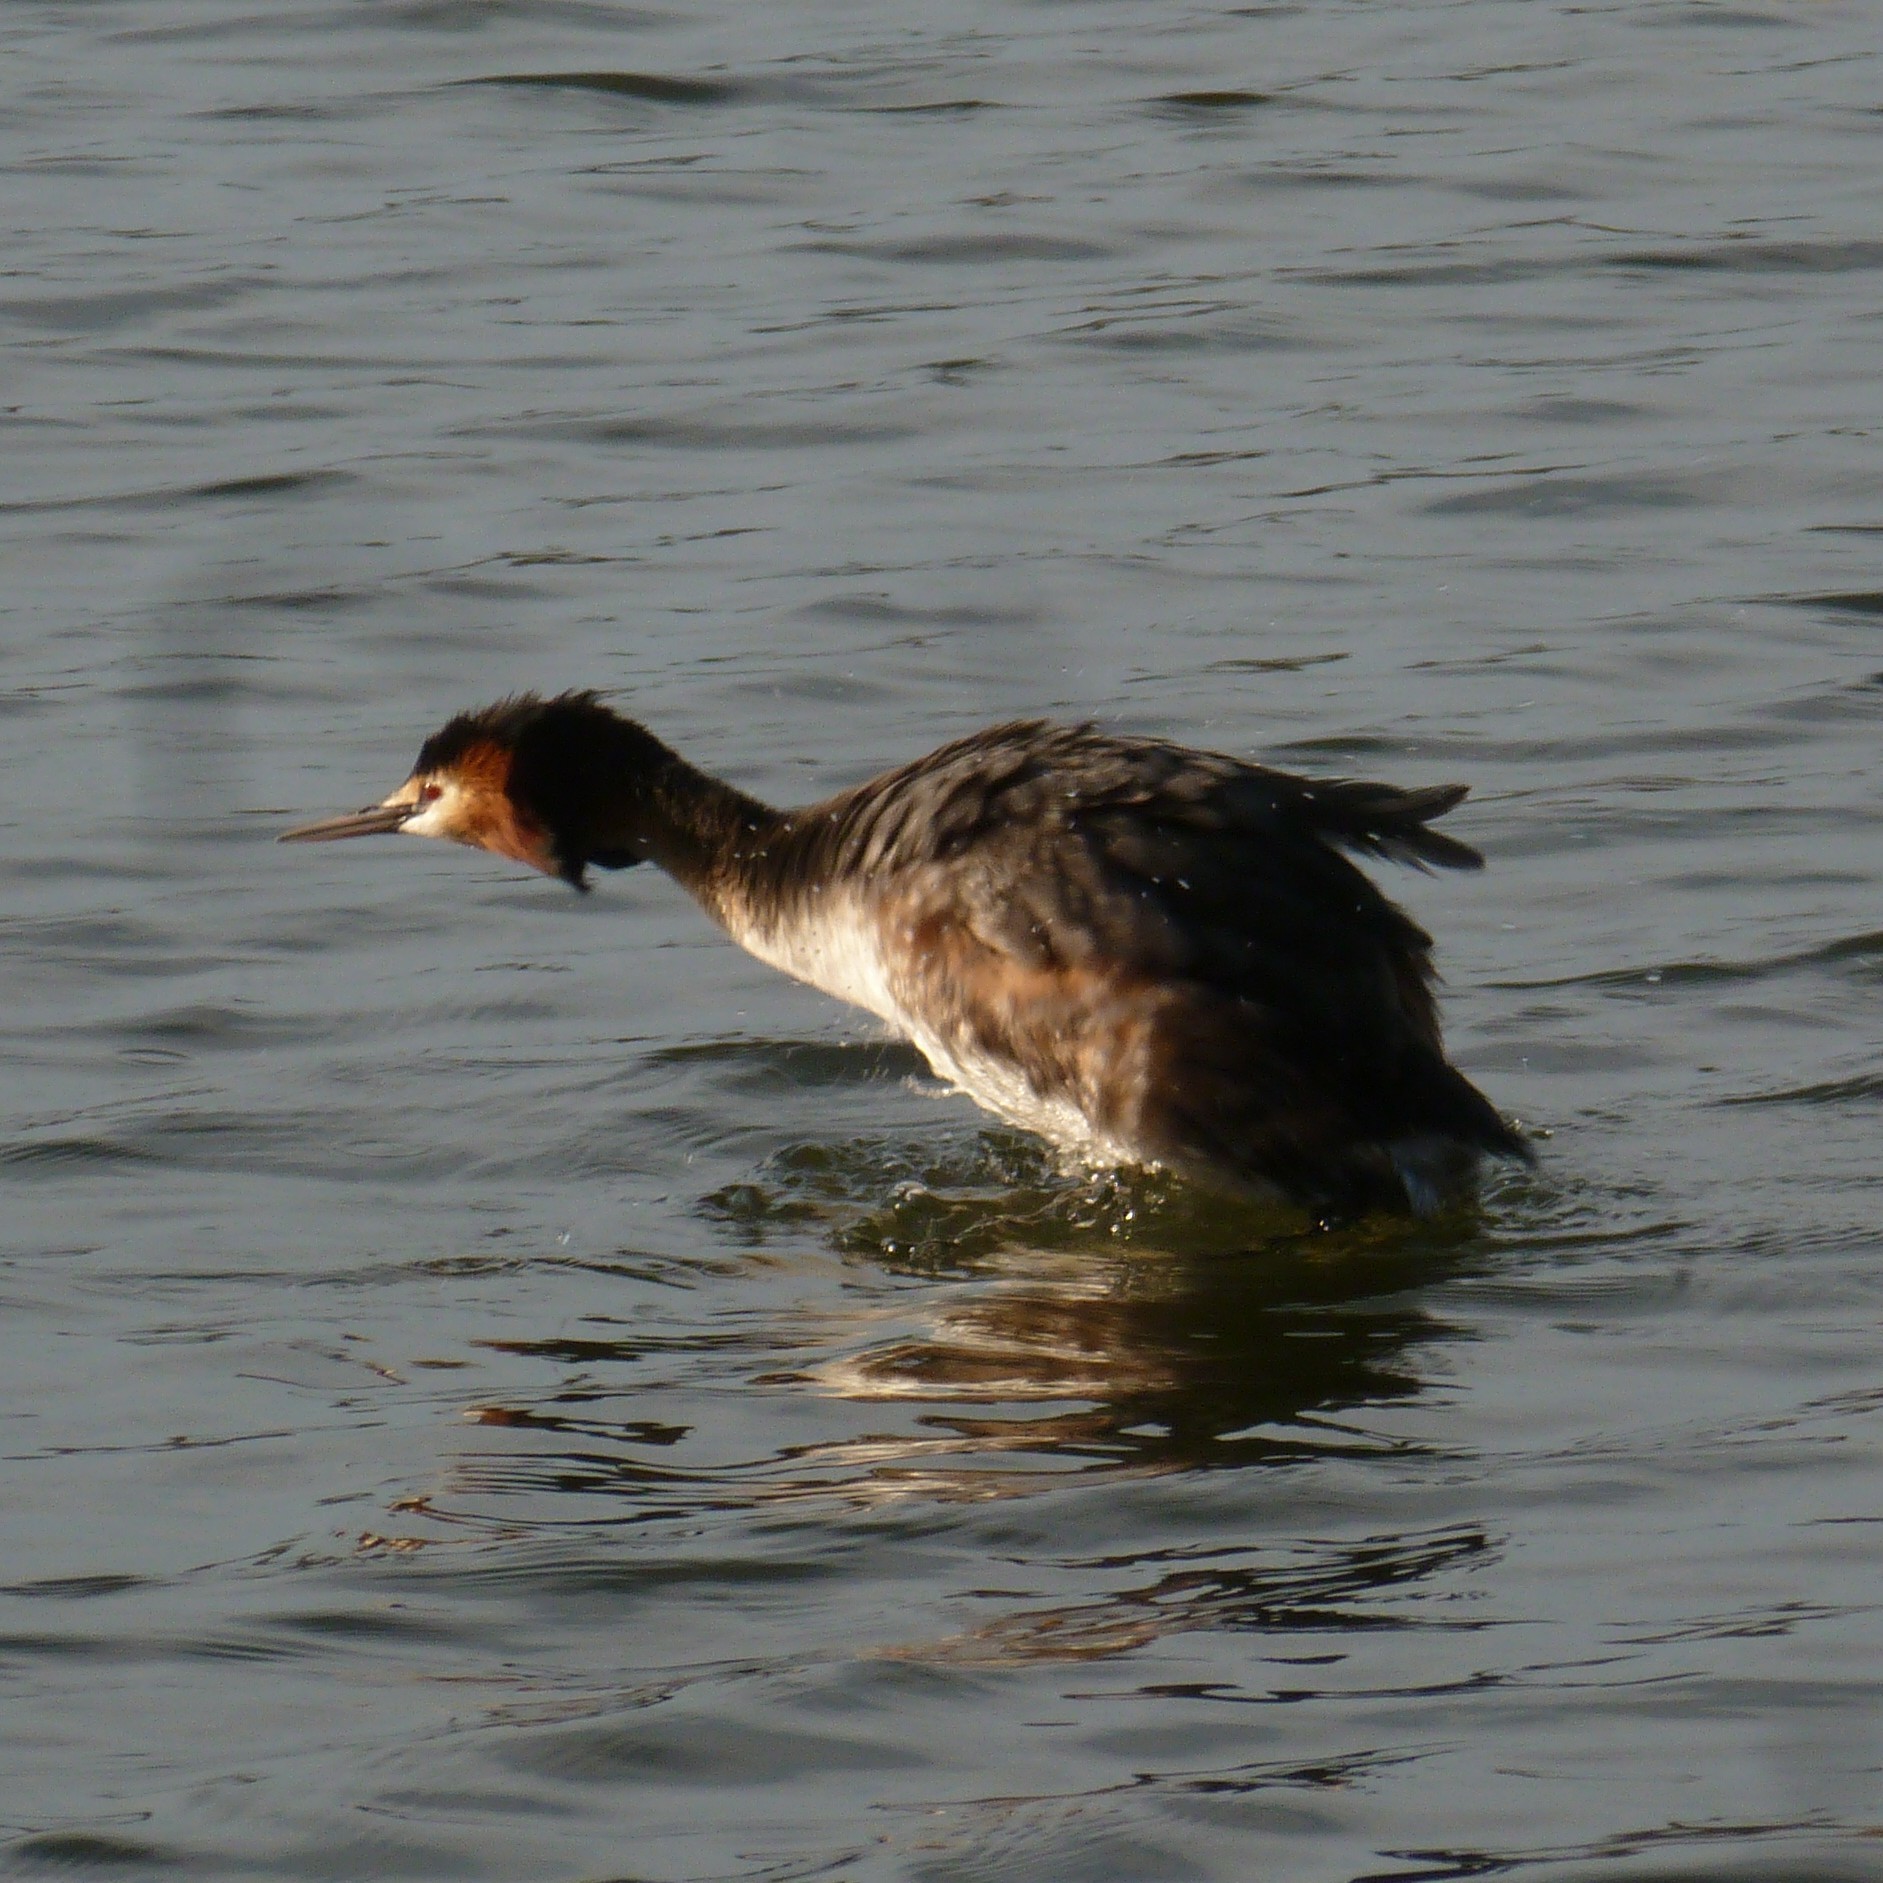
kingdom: Animalia
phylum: Chordata
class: Aves
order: Podicipediformes
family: Podicipedidae
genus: Podiceps
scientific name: Podiceps cristatus
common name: Great crested grebe
